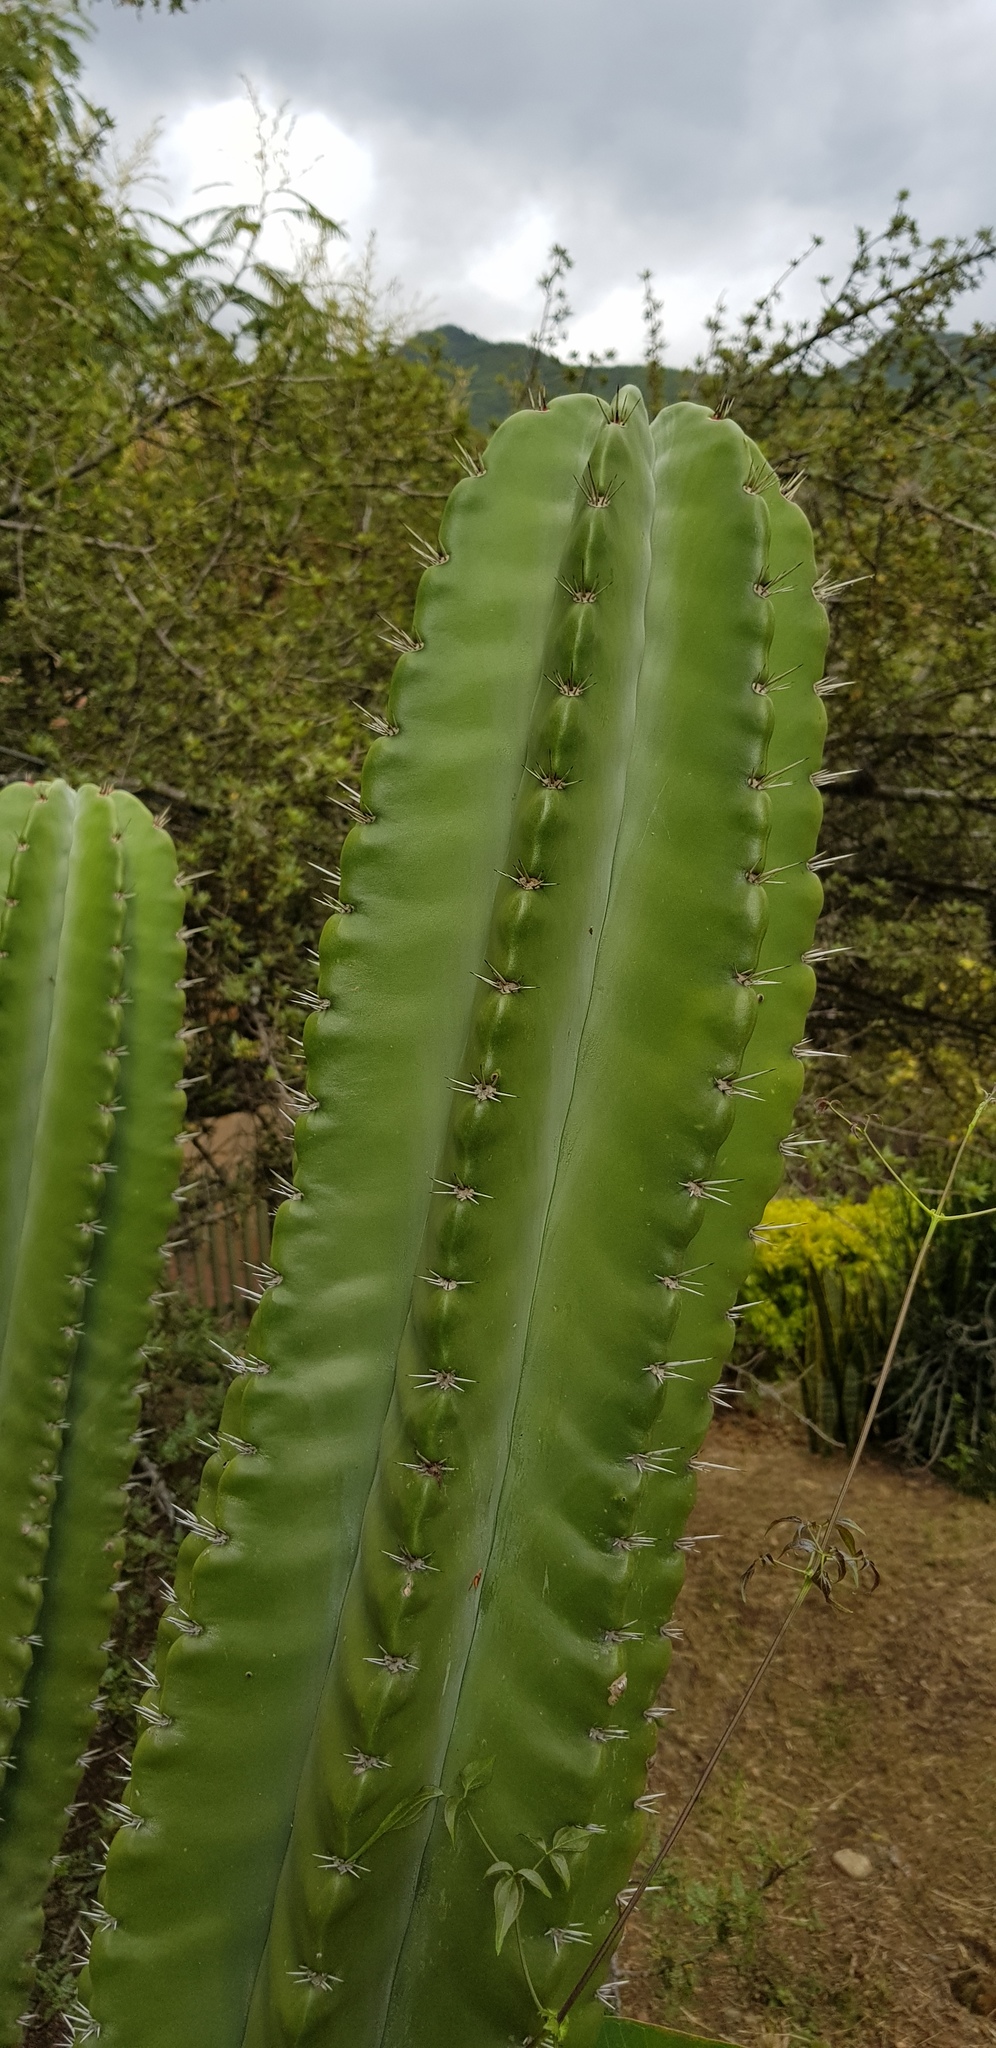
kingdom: Plantae
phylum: Tracheophyta
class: Magnoliopsida
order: Caryophyllales
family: Cactaceae
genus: Stenocereus
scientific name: Stenocereus pruinosus
